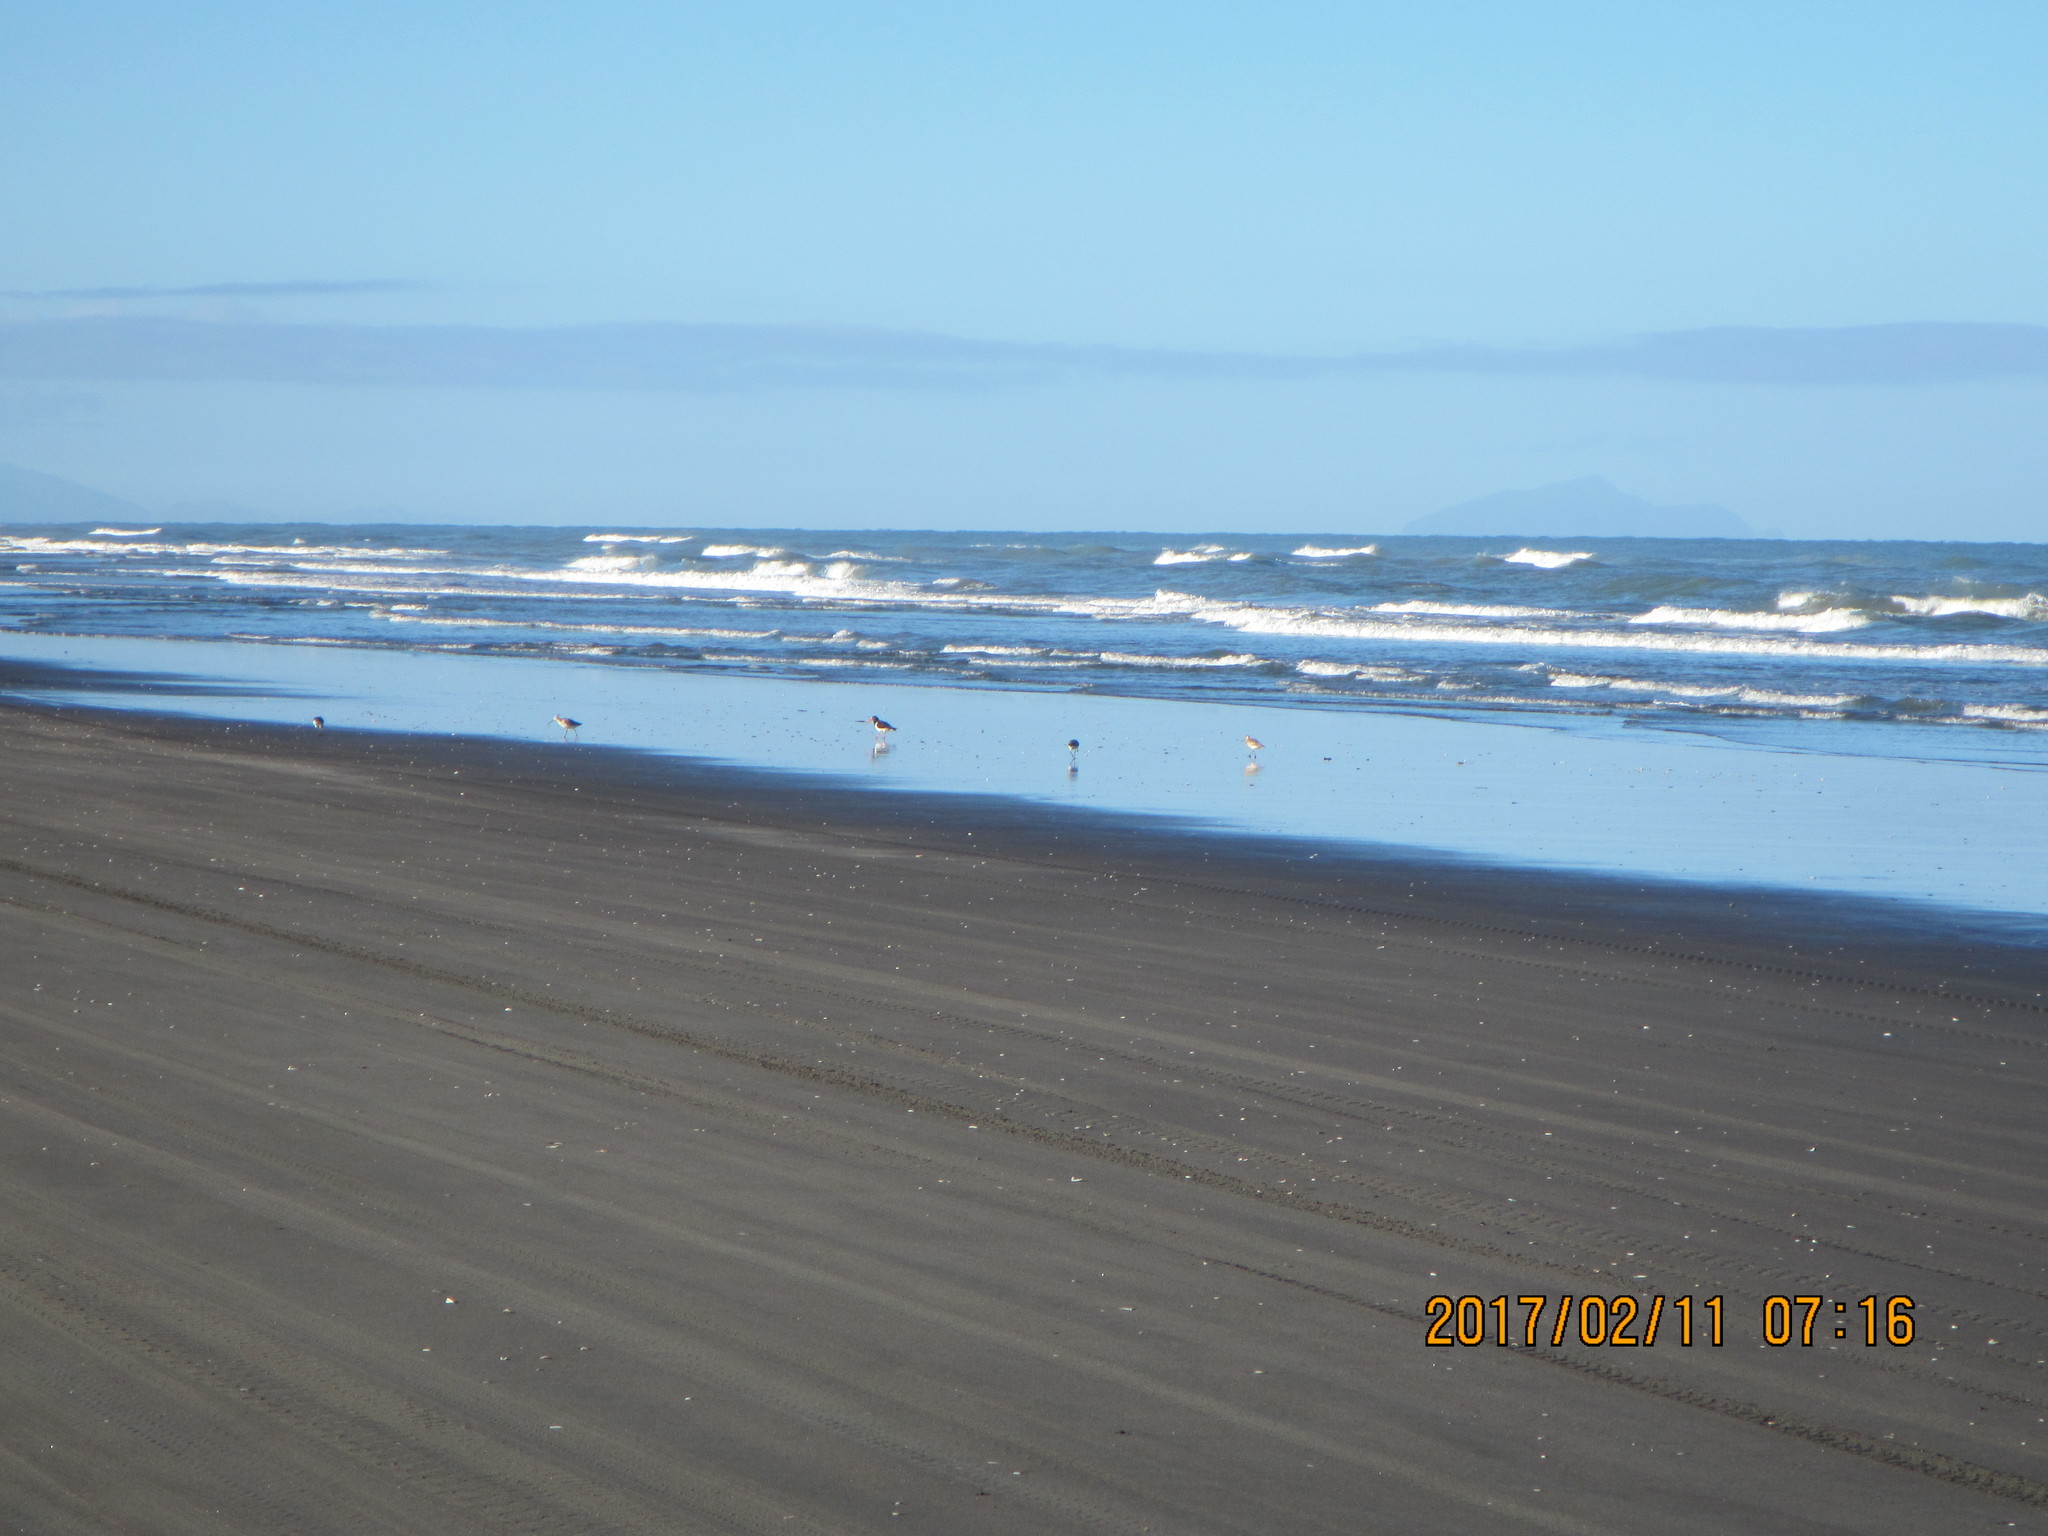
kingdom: Animalia
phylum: Chordata
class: Aves
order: Charadriiformes
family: Scolopacidae
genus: Limosa
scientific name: Limosa lapponica
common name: Bar-tailed godwit
